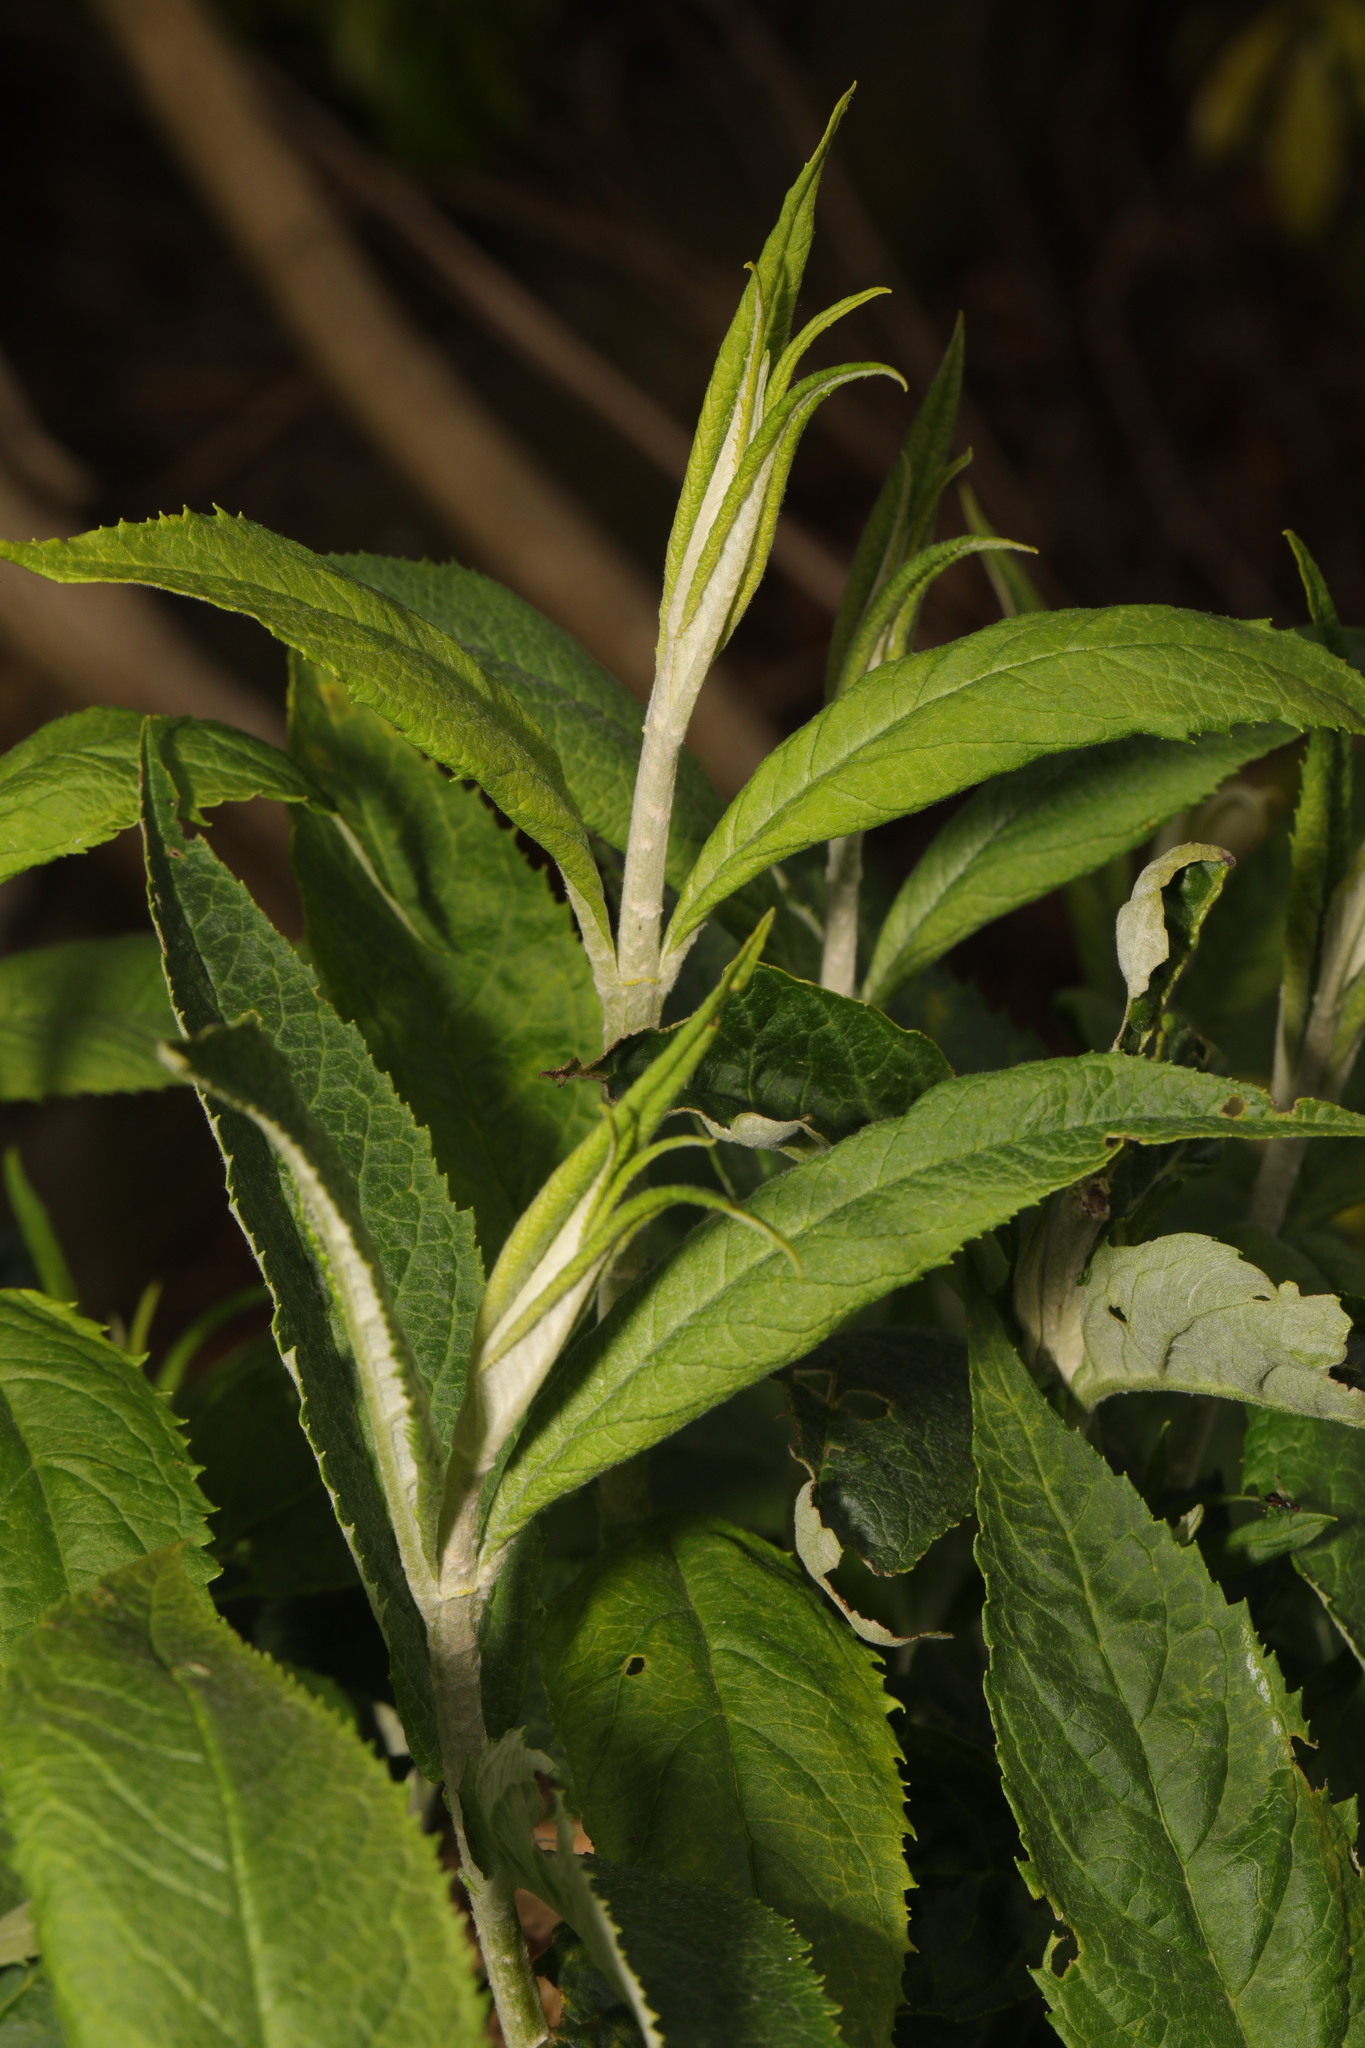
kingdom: Plantae
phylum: Tracheophyta
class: Magnoliopsida
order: Lamiales
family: Scrophulariaceae
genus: Buddleja
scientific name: Buddleja davidii
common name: Butterfly-bush
